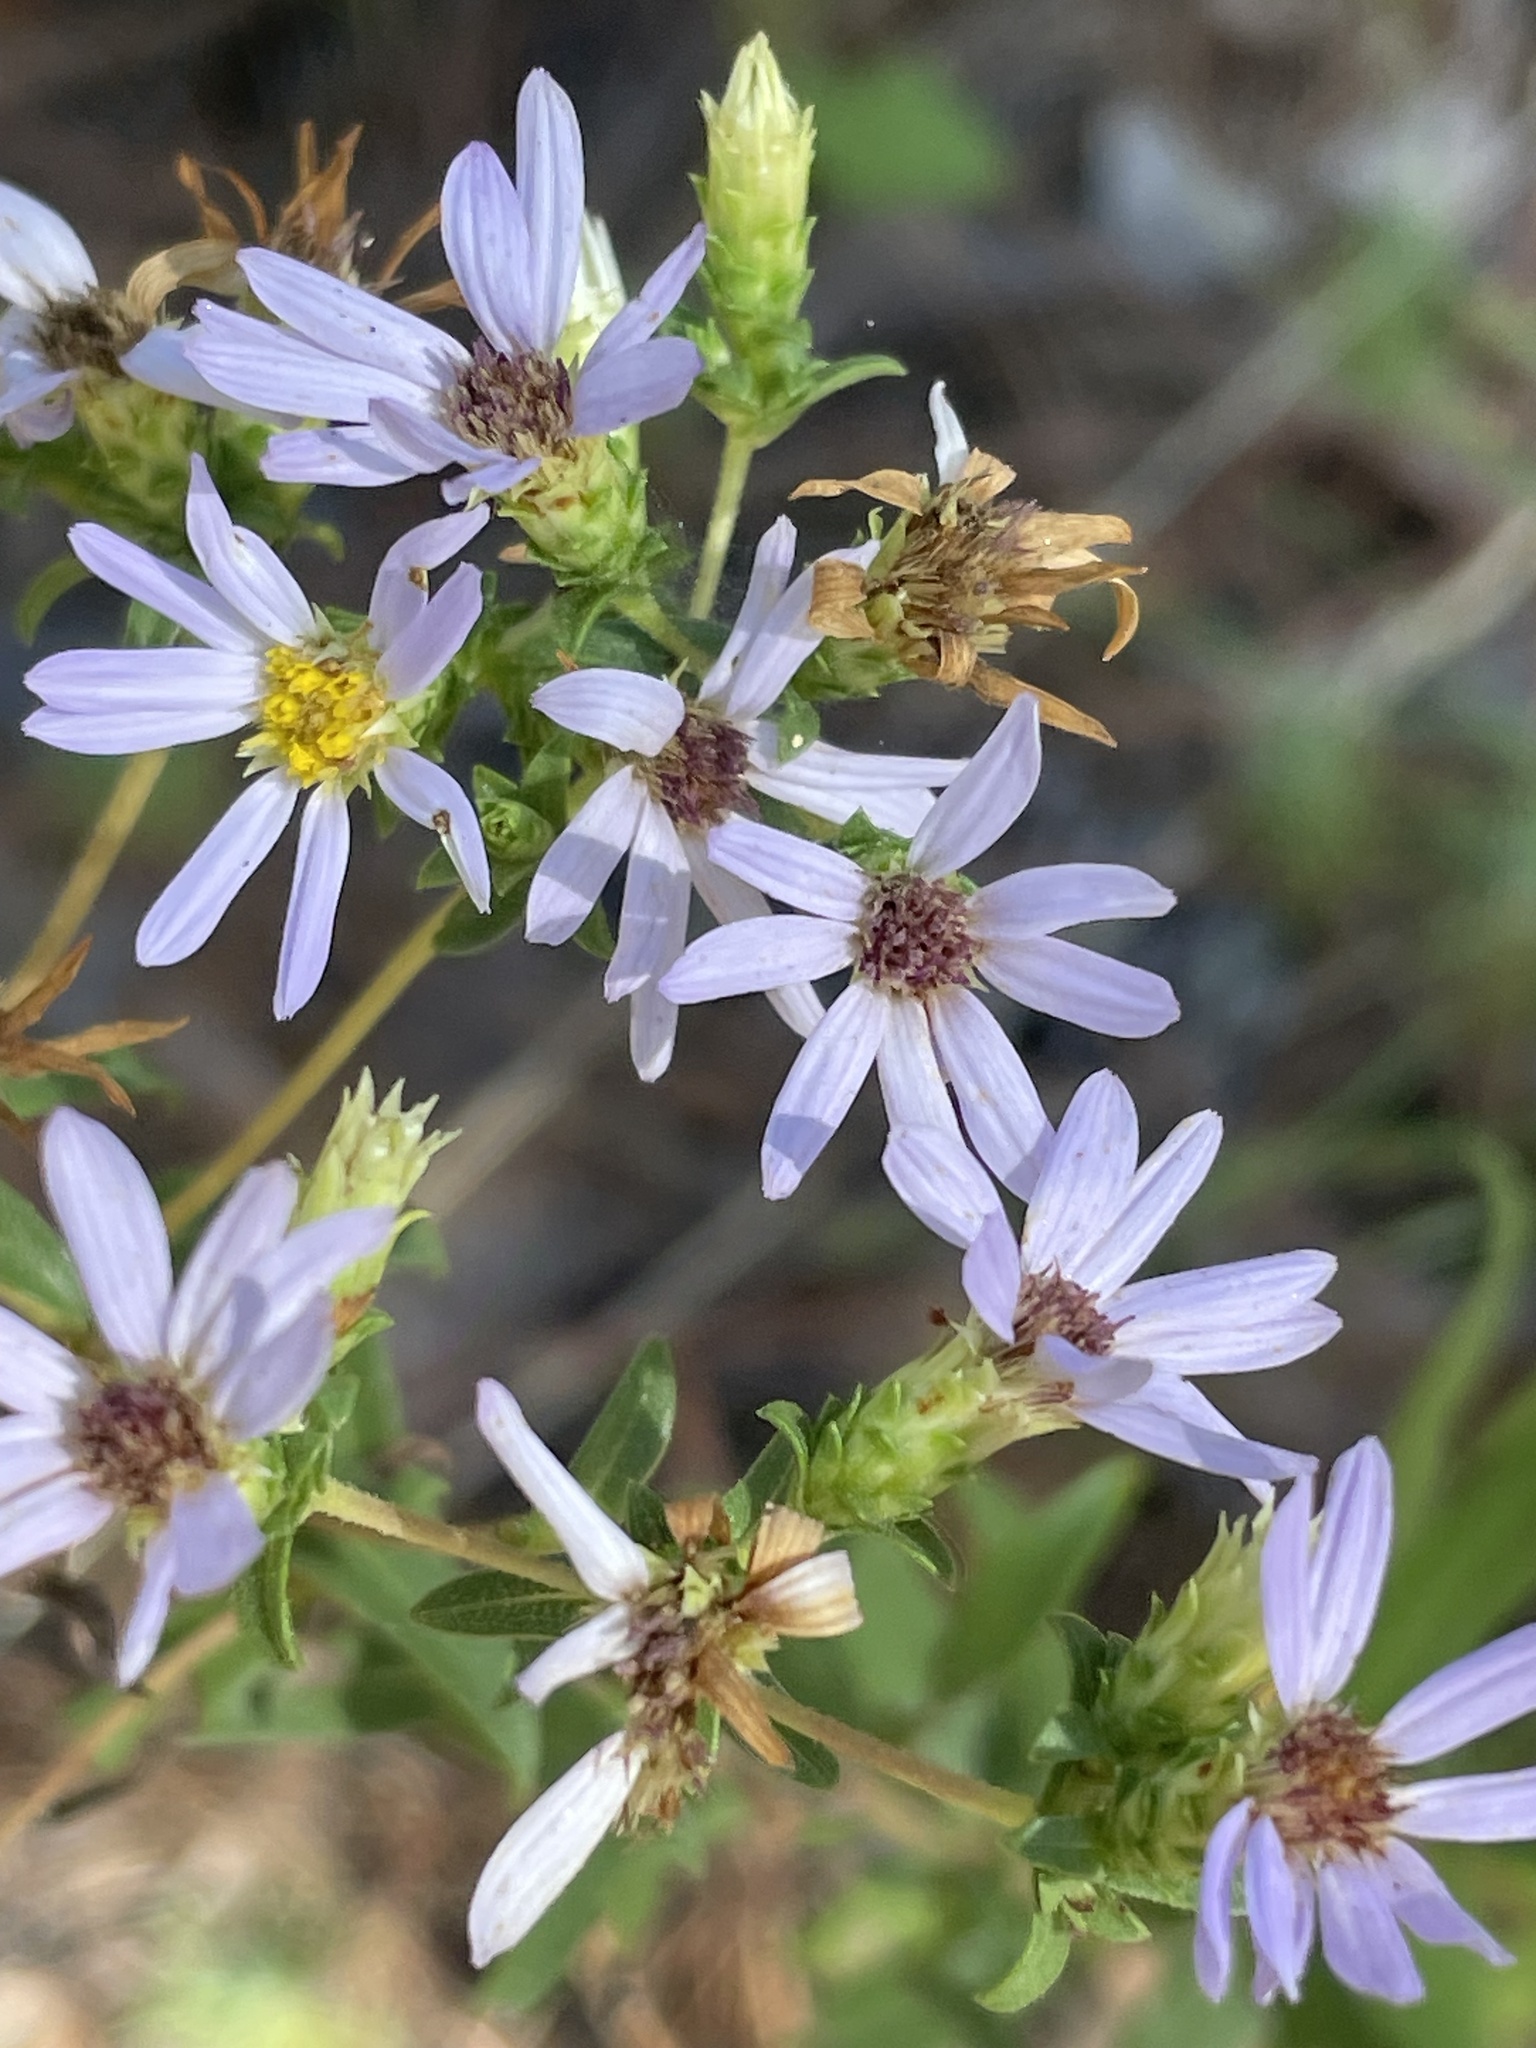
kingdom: Plantae
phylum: Tracheophyta
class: Magnoliopsida
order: Asterales
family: Asteraceae
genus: Eurybia
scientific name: Eurybia compacta
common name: Slender aster
